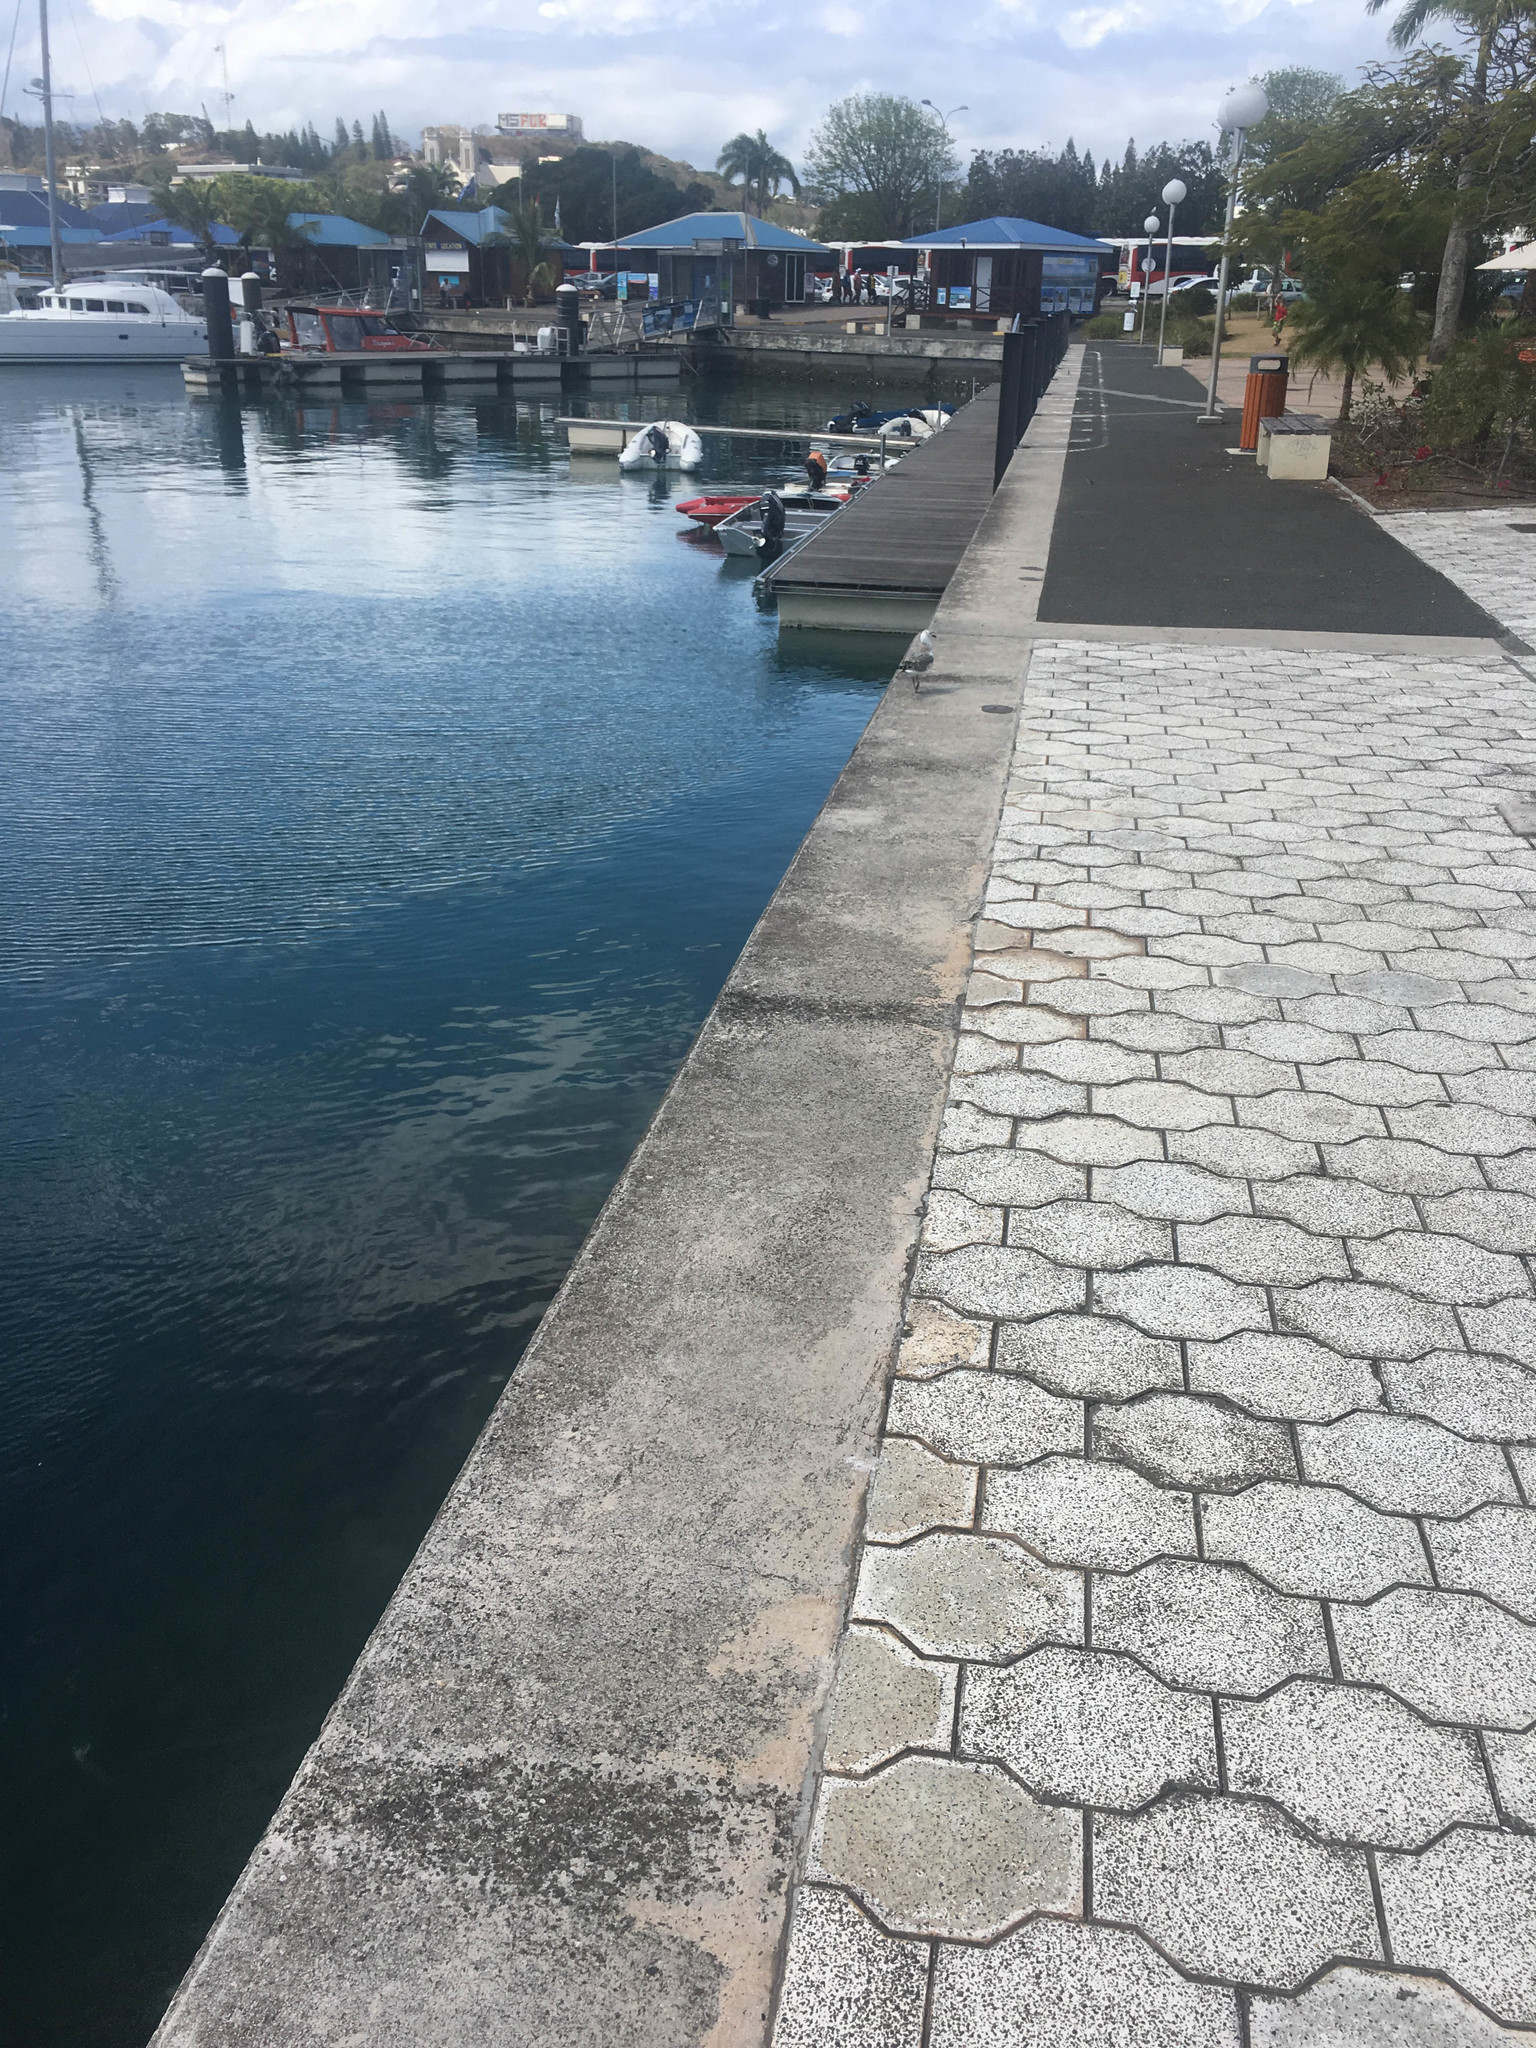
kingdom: Animalia
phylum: Chordata
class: Aves
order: Charadriiformes
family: Laridae
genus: Chroicocephalus
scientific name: Chroicocephalus novaehollandiae
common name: Silver gull
